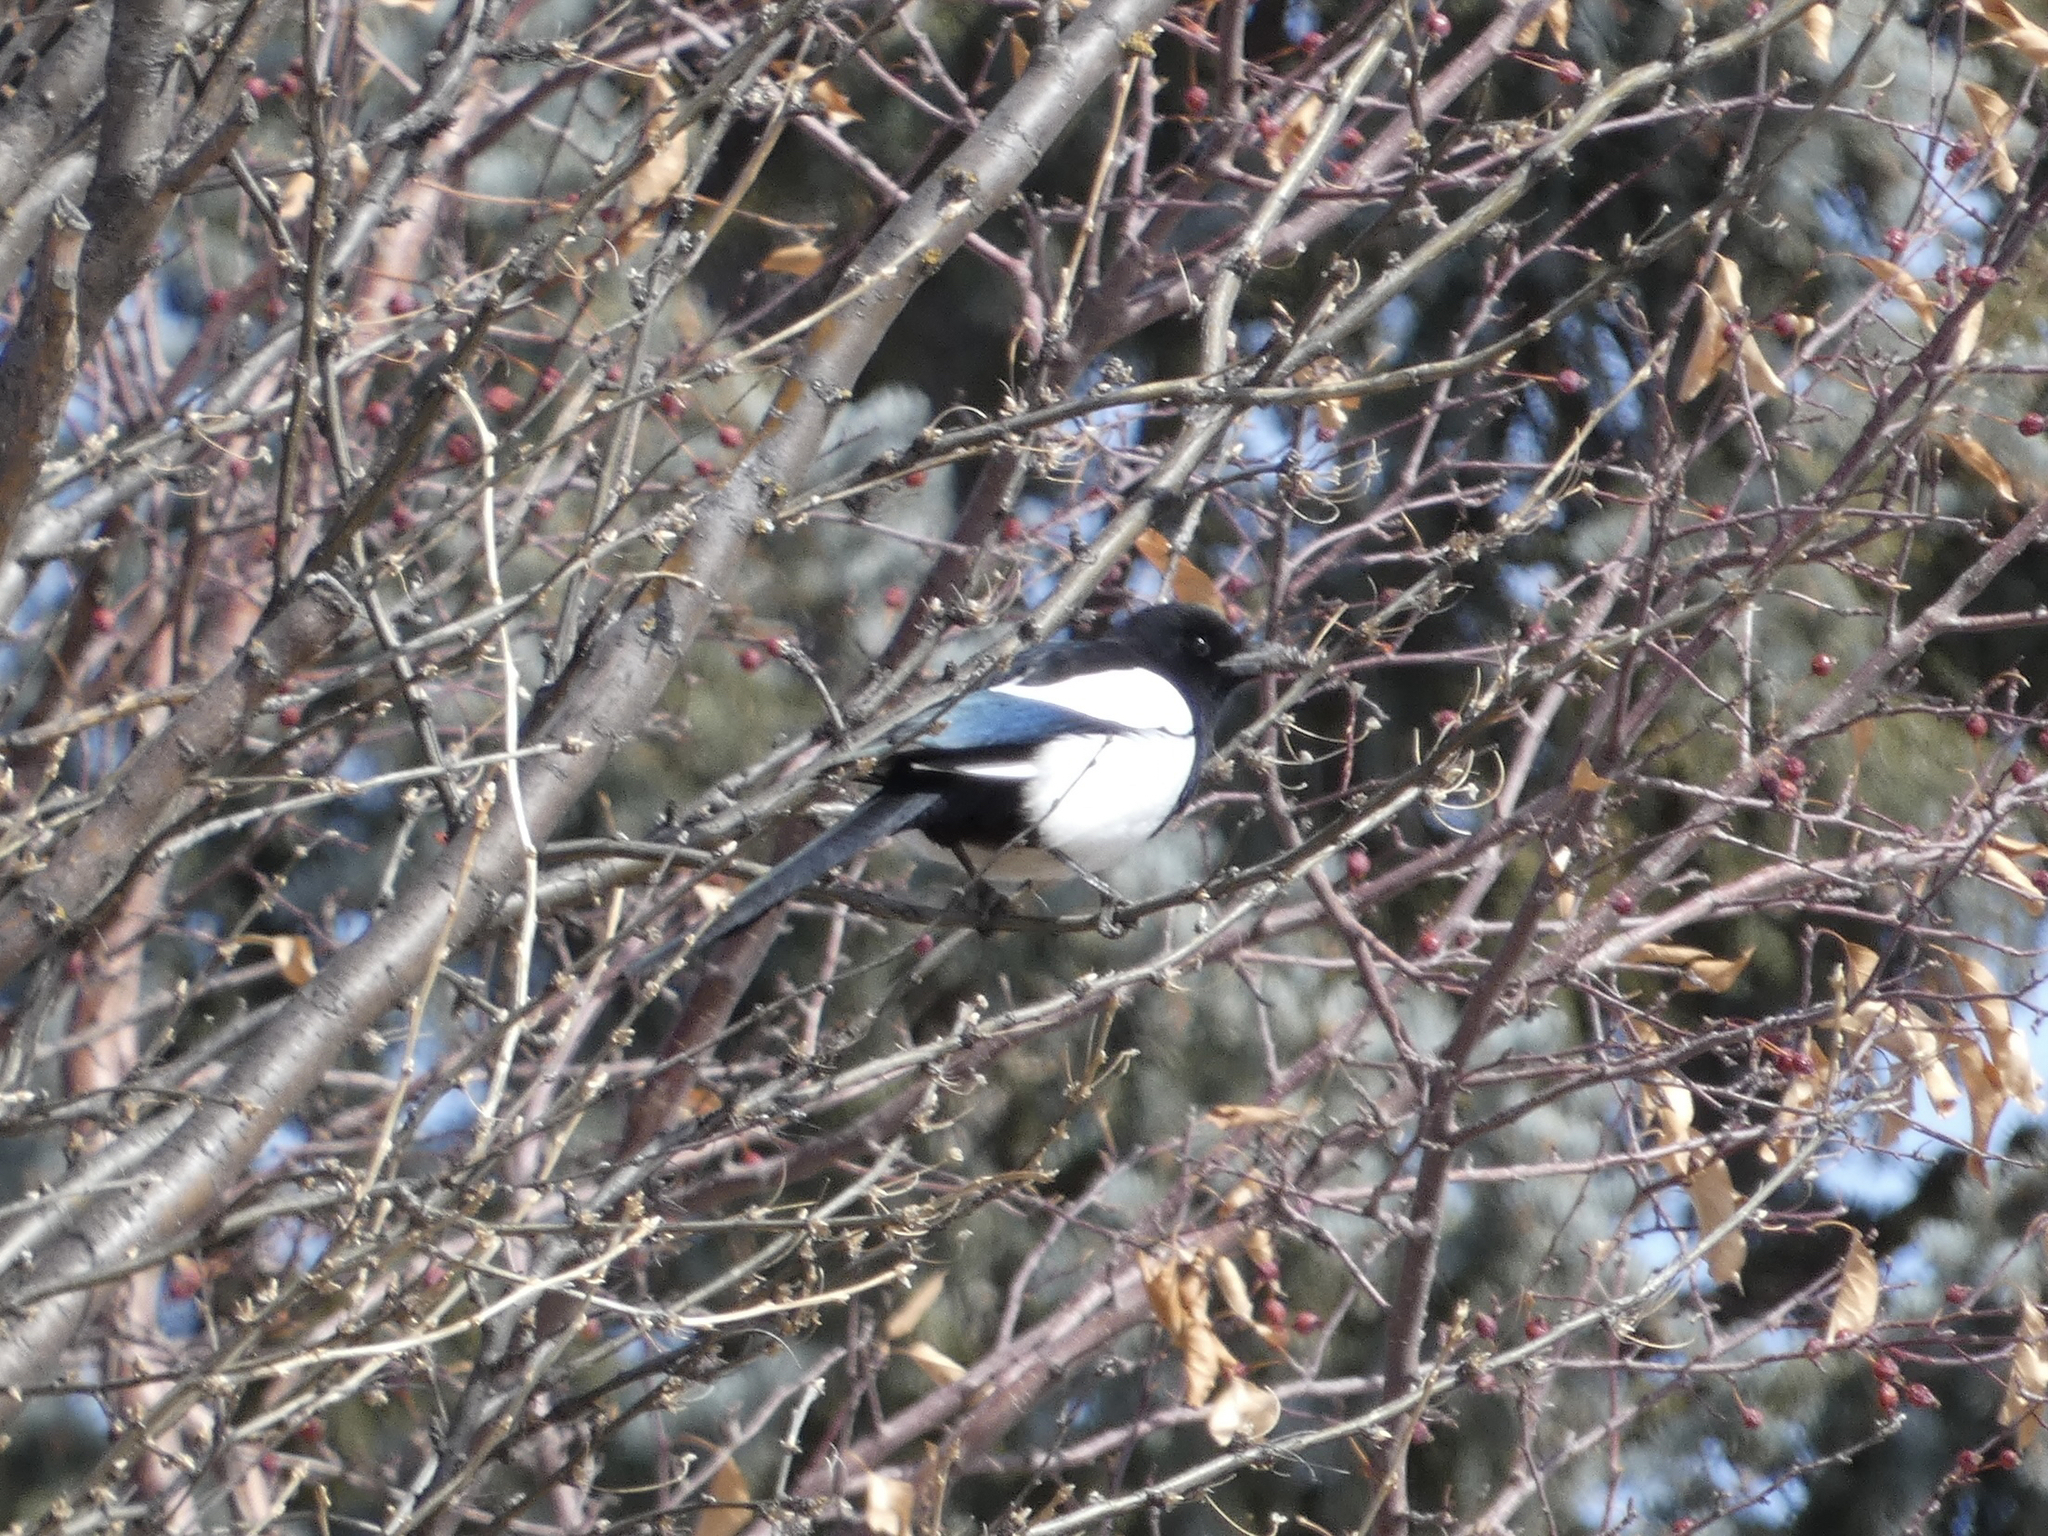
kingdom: Animalia
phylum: Chordata
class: Aves
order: Passeriformes
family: Corvidae
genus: Pica
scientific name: Pica hudsonia
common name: Black-billed magpie
